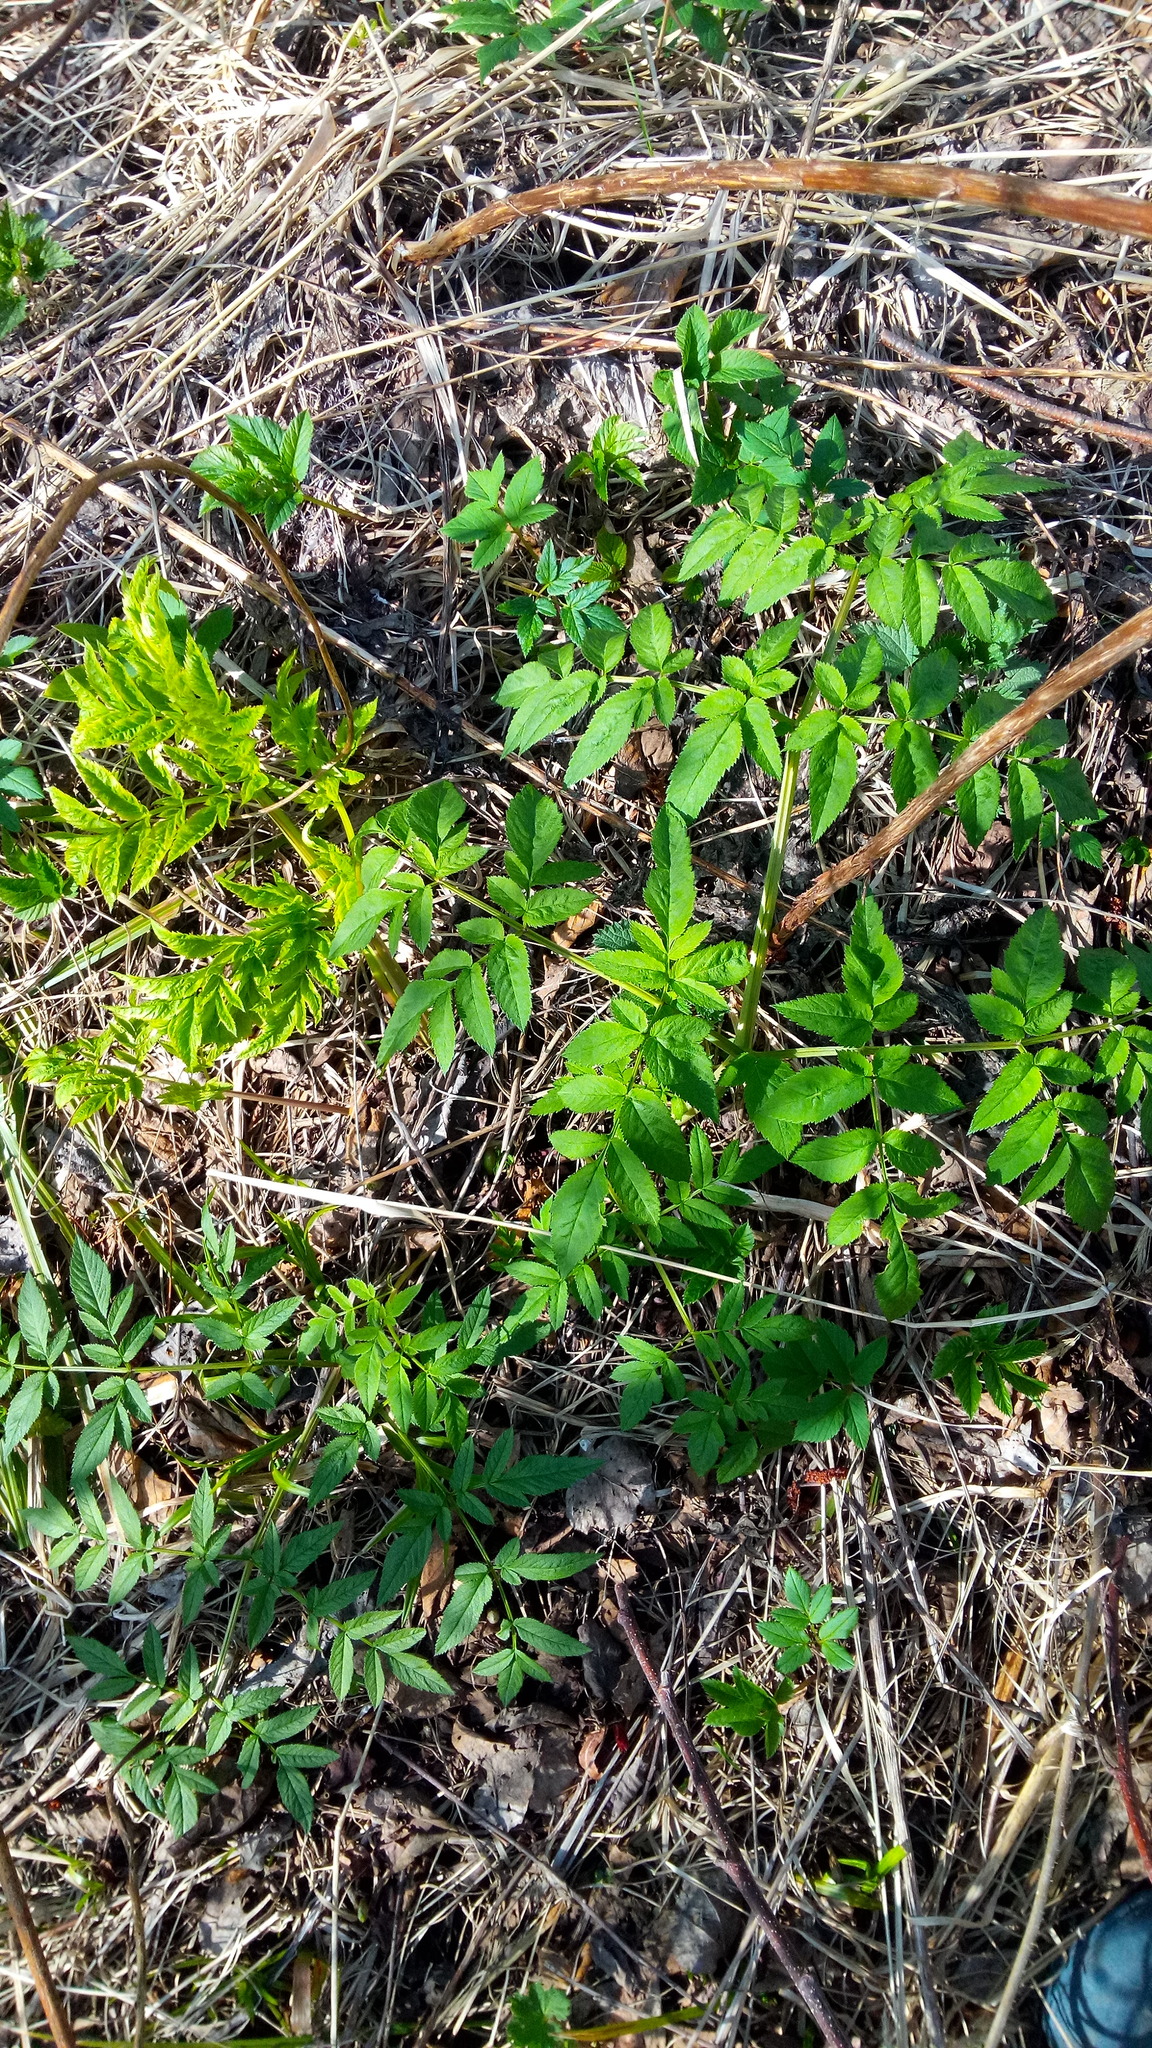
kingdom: Plantae
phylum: Tracheophyta
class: Magnoliopsida
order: Apiales
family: Apiaceae
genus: Angelica
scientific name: Angelica sylvestris
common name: Wild angelica
